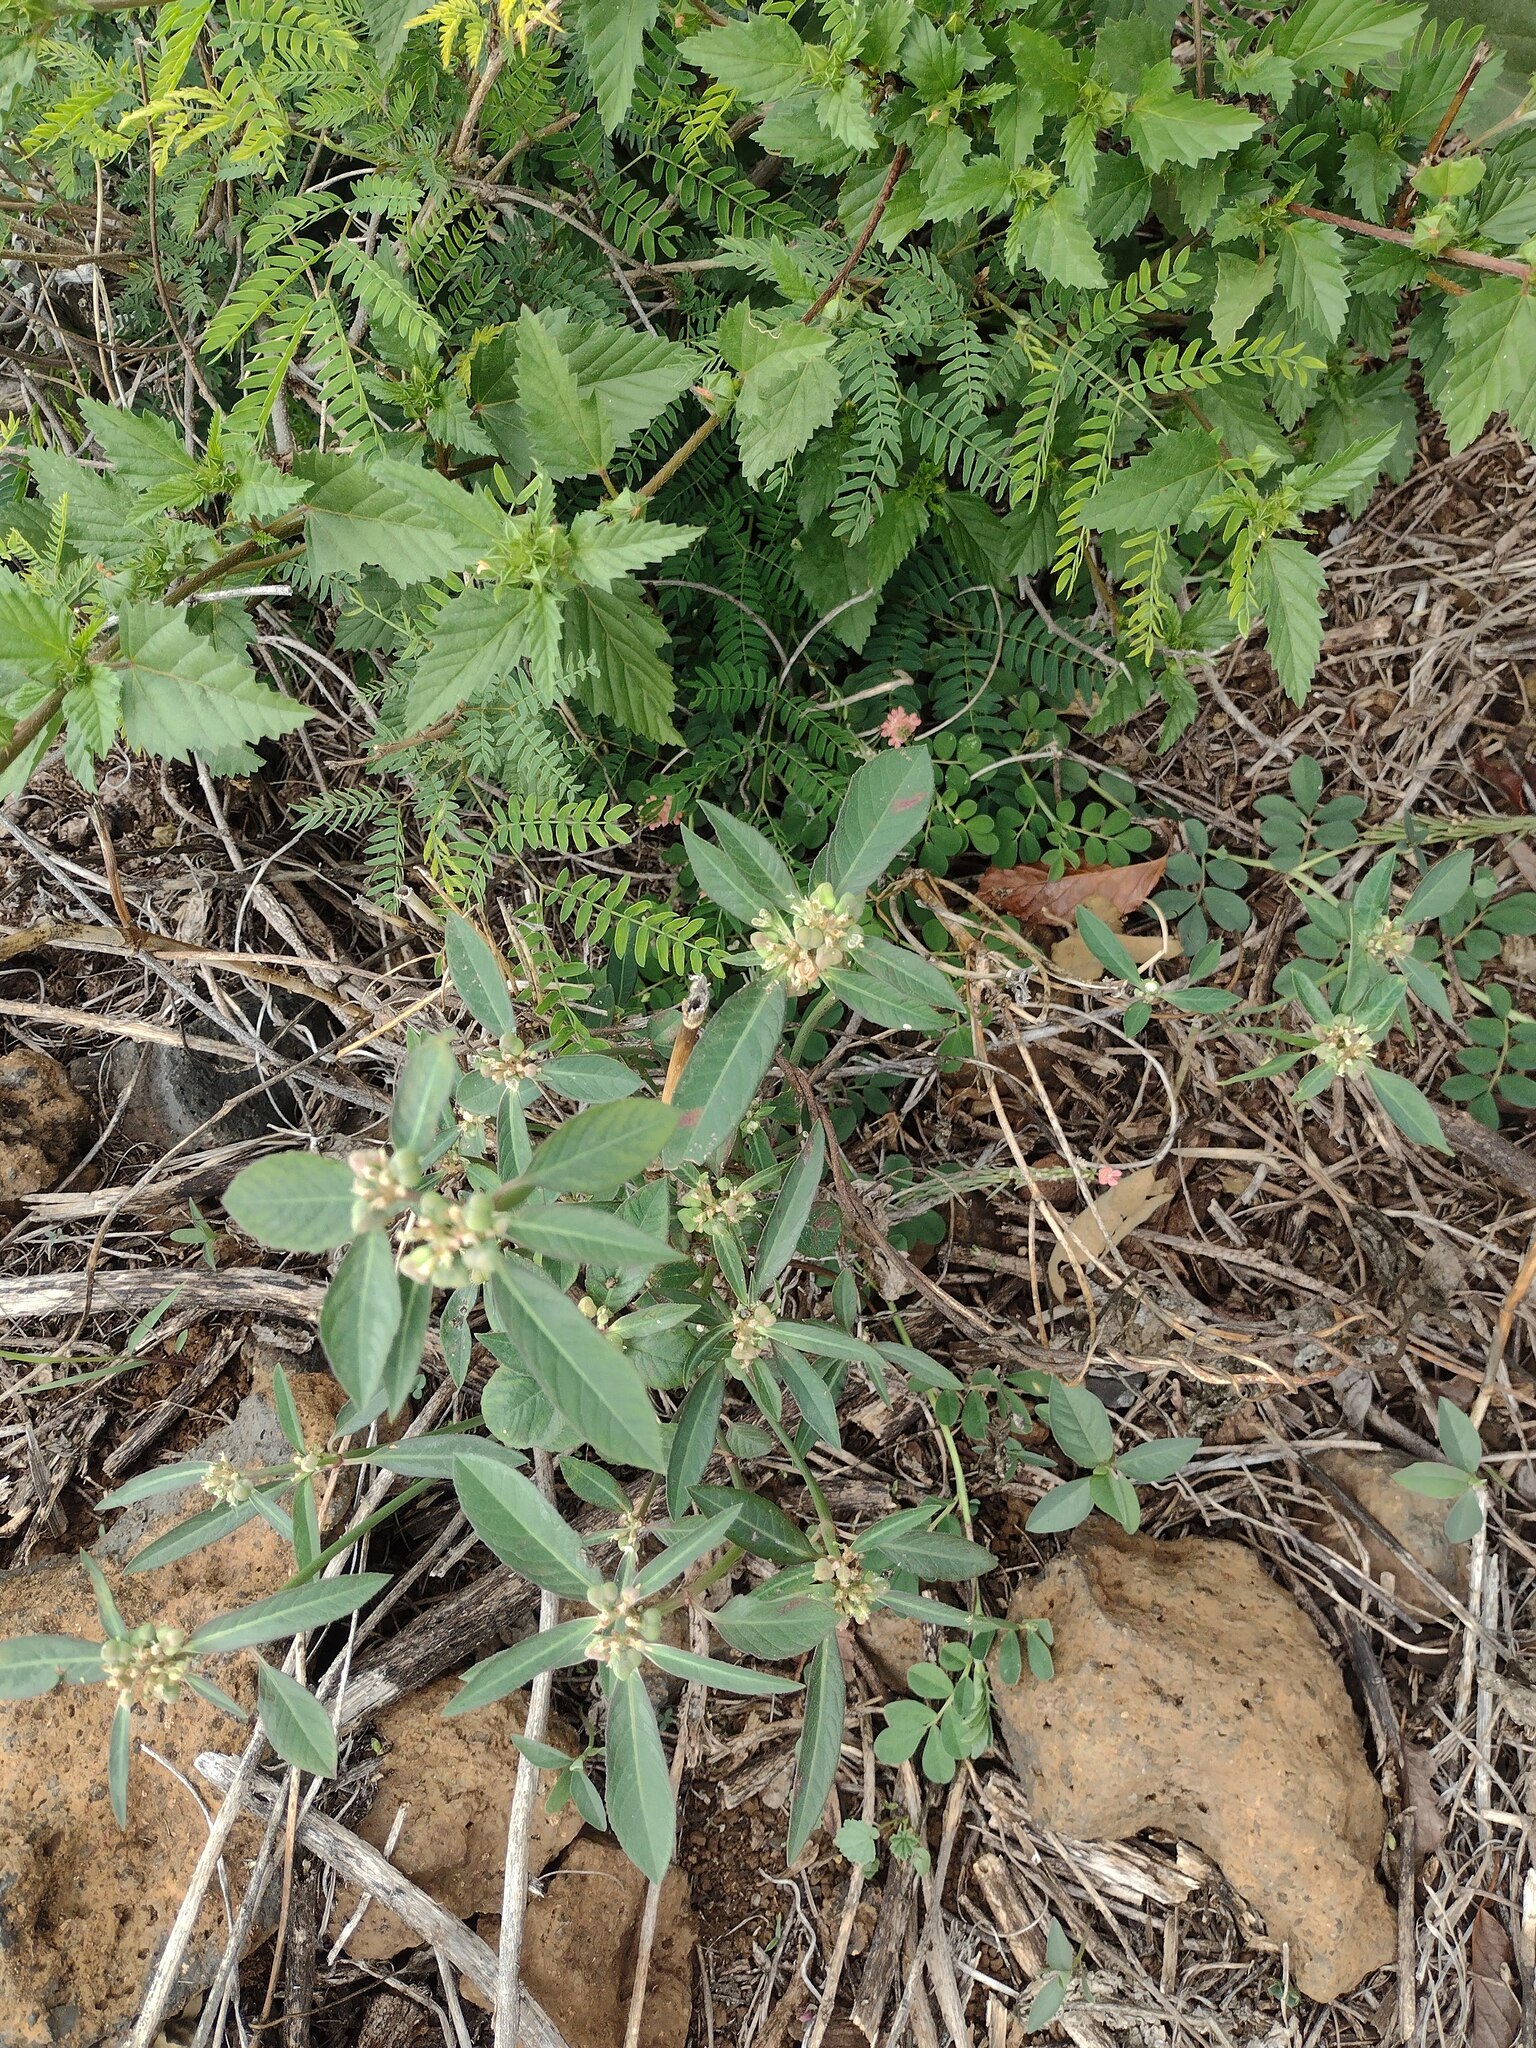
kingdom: Plantae
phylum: Tracheophyta
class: Magnoliopsida
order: Malpighiales
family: Euphorbiaceae
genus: Euphorbia
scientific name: Euphorbia heterophylla
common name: Mexican fireplant
